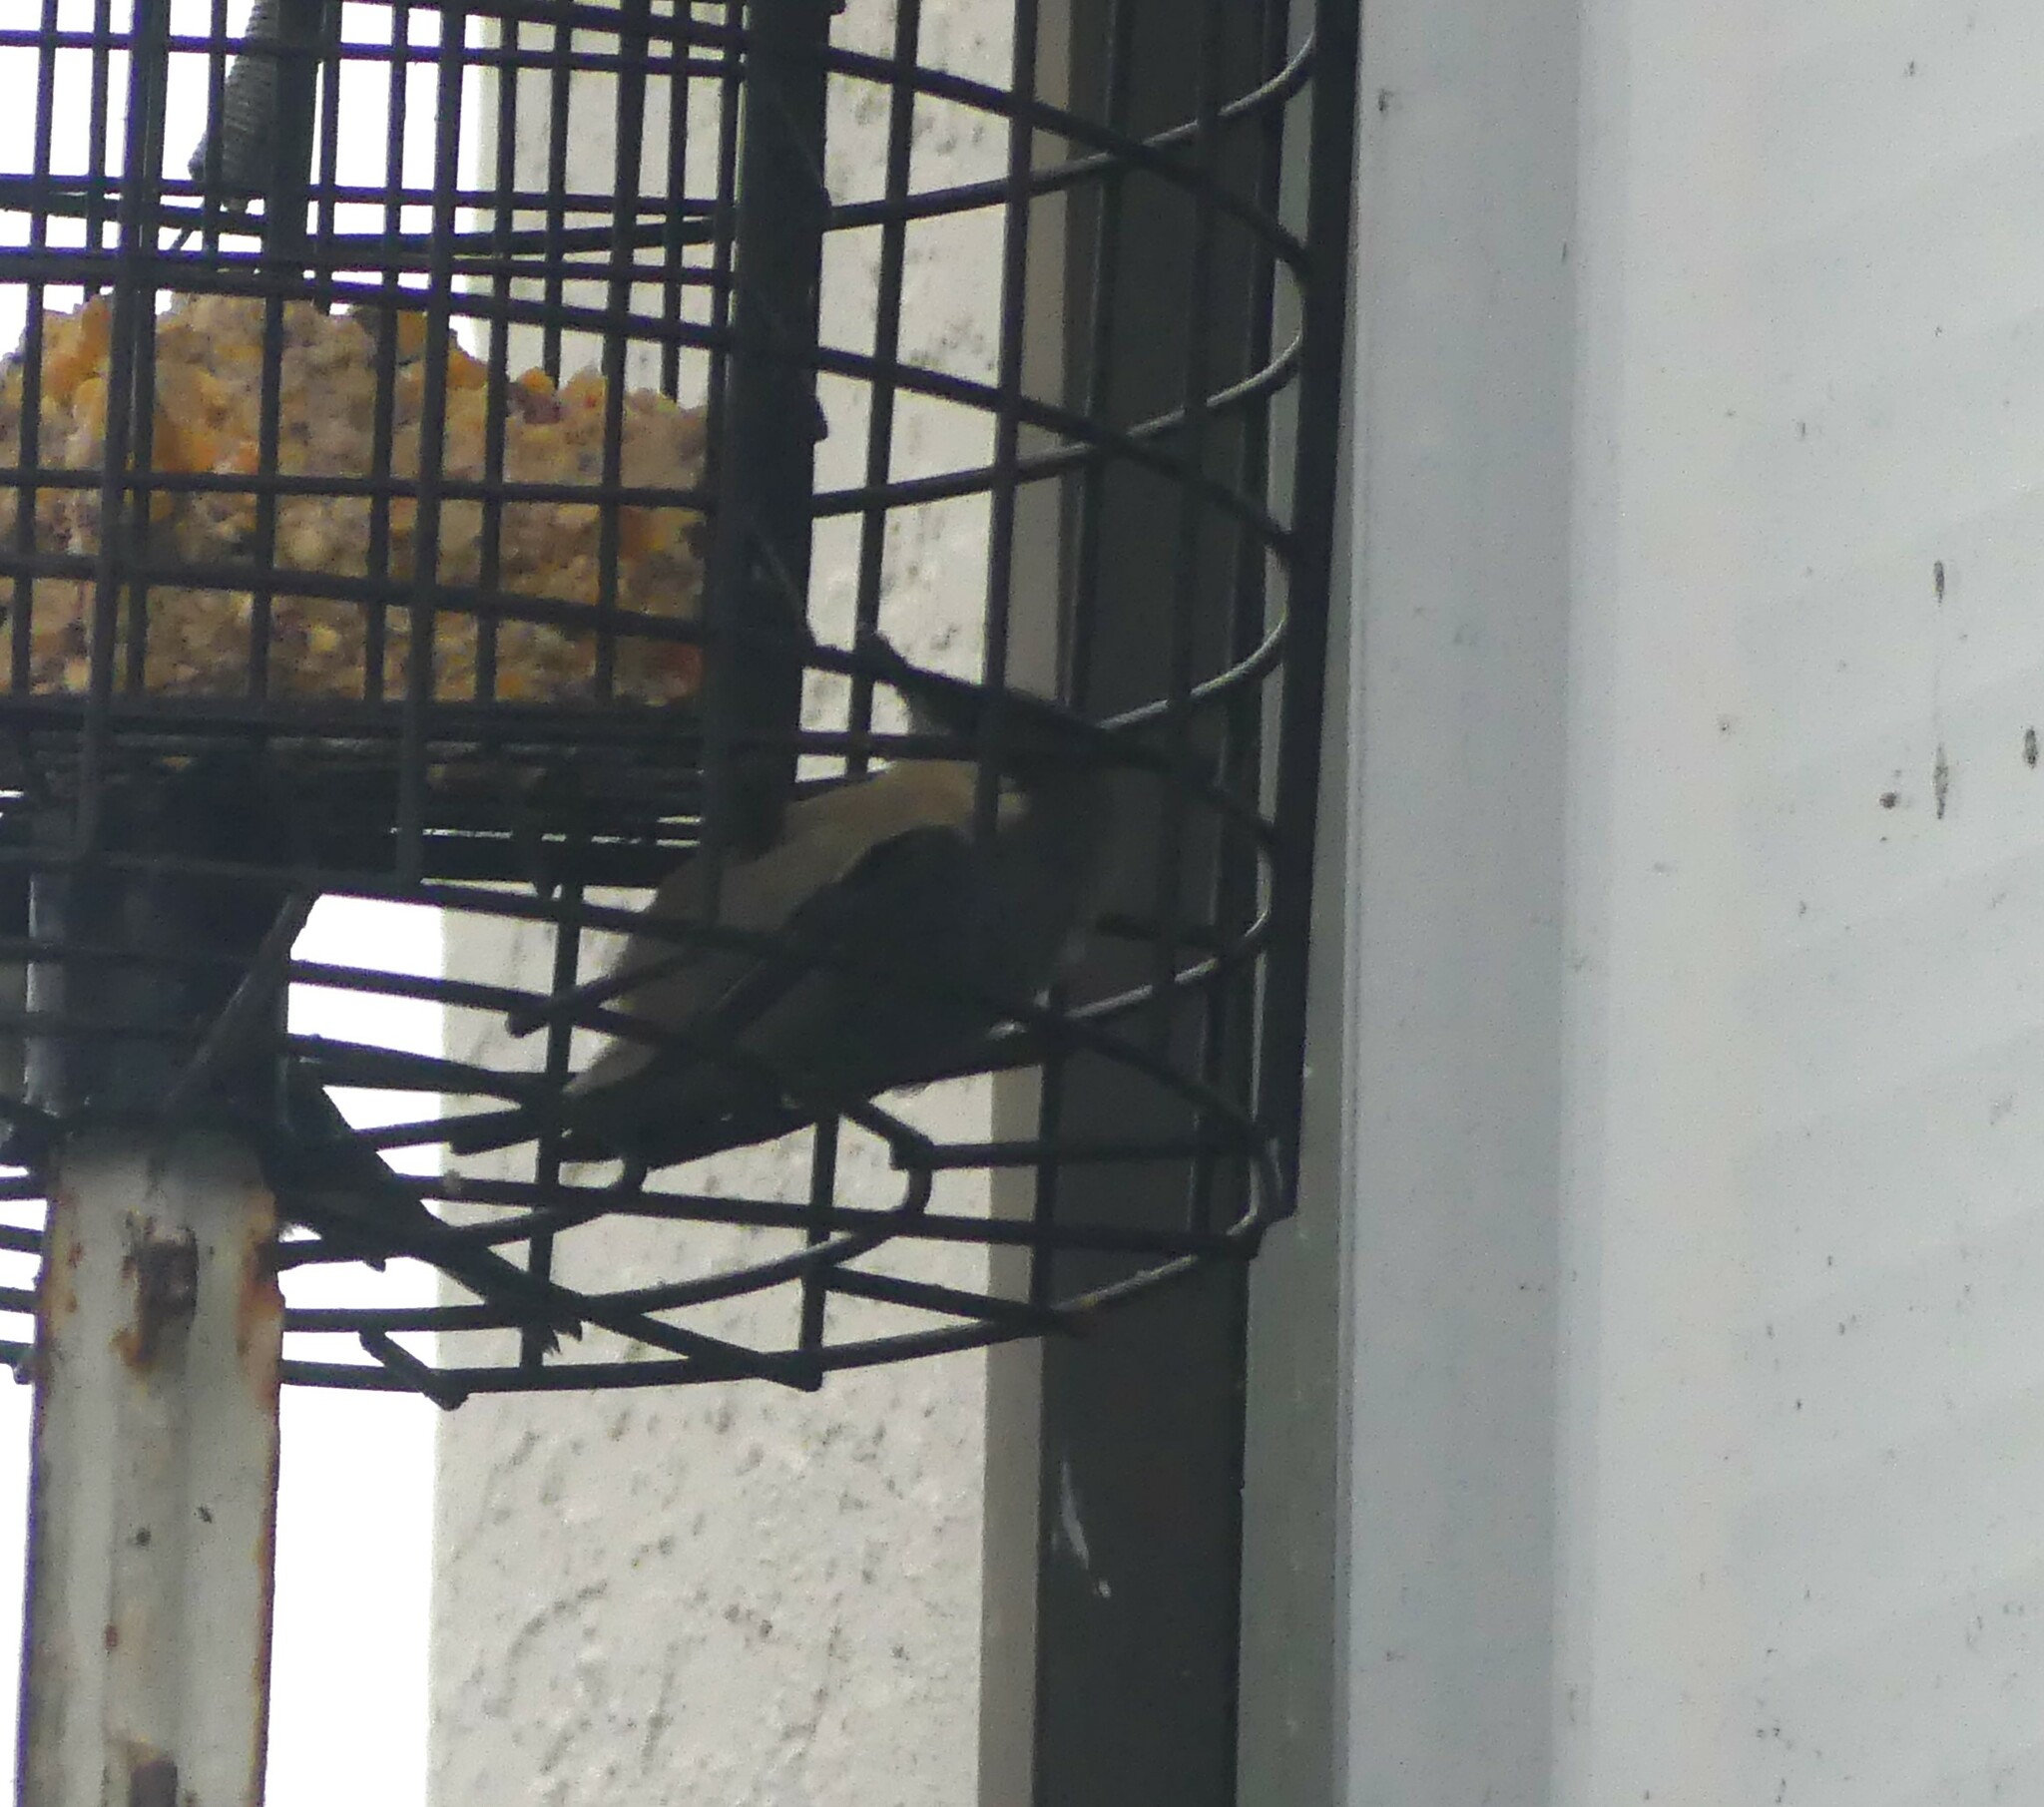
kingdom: Animalia
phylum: Chordata
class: Aves
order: Passeriformes
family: Sittidae
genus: Sitta
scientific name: Sitta pygmaea
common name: Pygmy nuthatch
